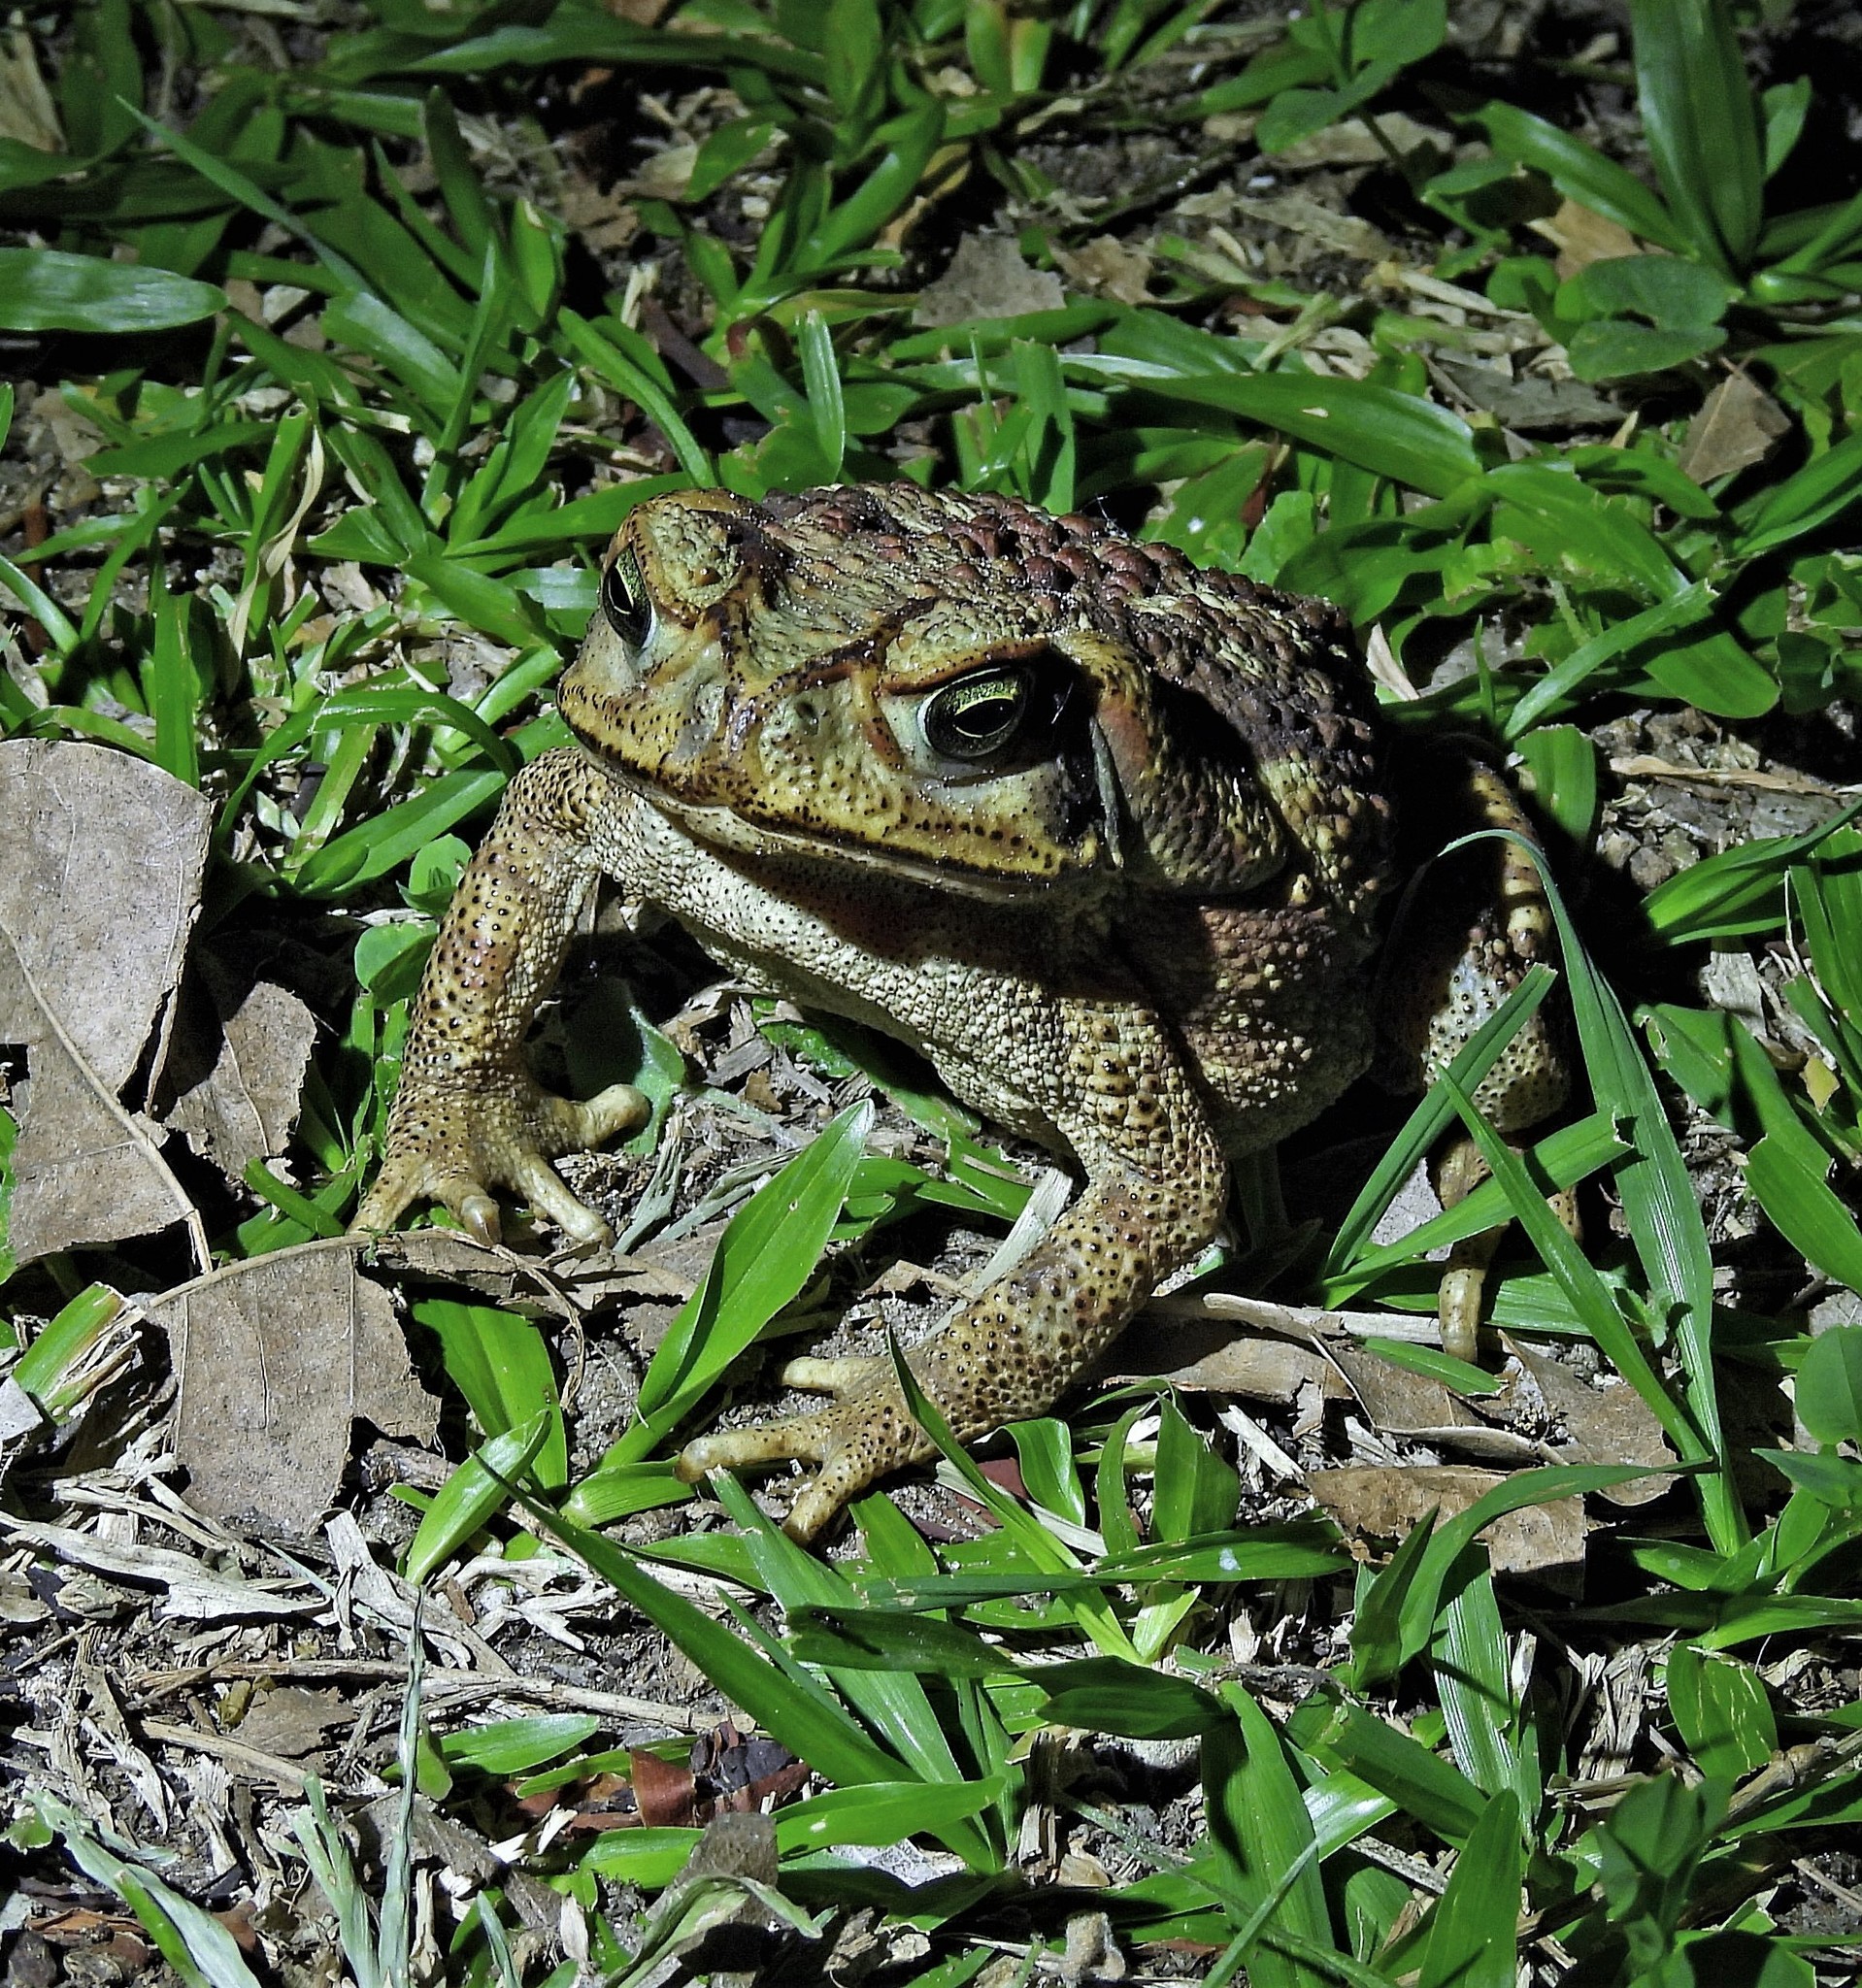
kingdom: Animalia
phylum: Chordata
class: Amphibia
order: Anura
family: Bufonidae
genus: Rhinella
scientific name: Rhinella diptycha
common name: Cope's toad
